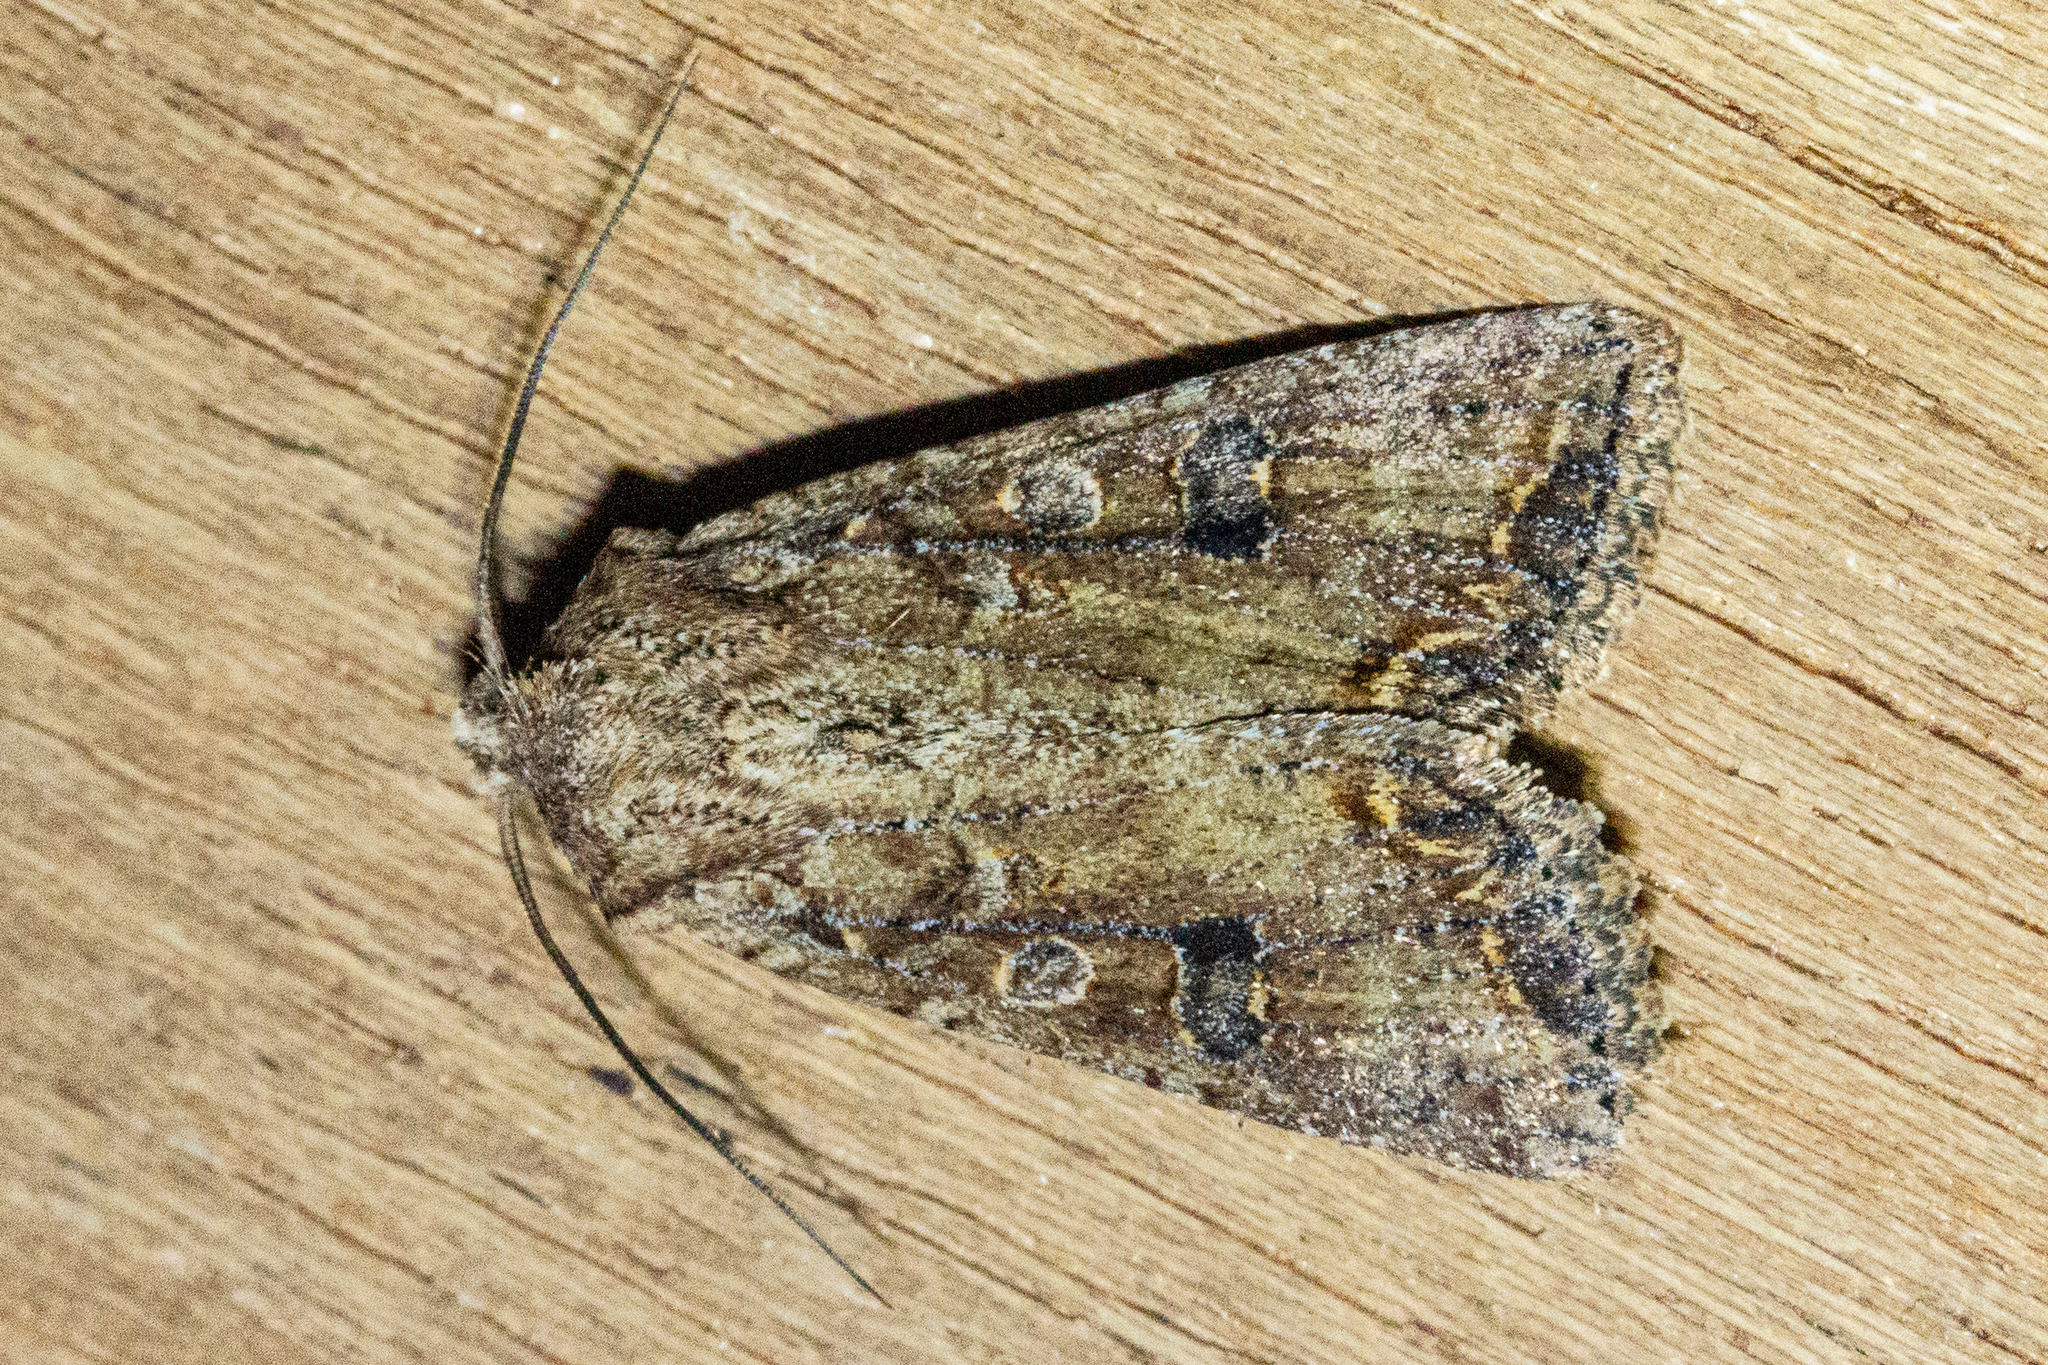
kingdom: Animalia
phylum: Arthropoda
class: Insecta
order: Lepidoptera
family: Noctuidae
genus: Ichneutica
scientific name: Ichneutica morosa
